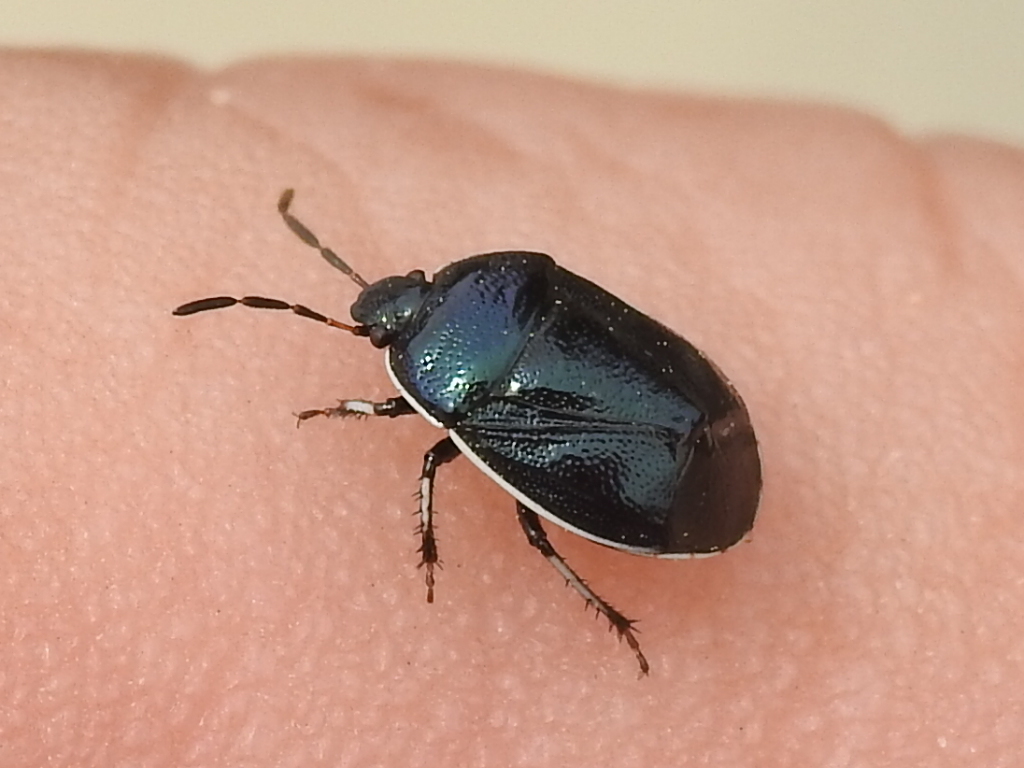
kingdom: Animalia
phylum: Arthropoda
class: Insecta
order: Hemiptera
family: Cydnidae
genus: Sehirus
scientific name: Sehirus cinctus
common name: White-margined burrower bug
